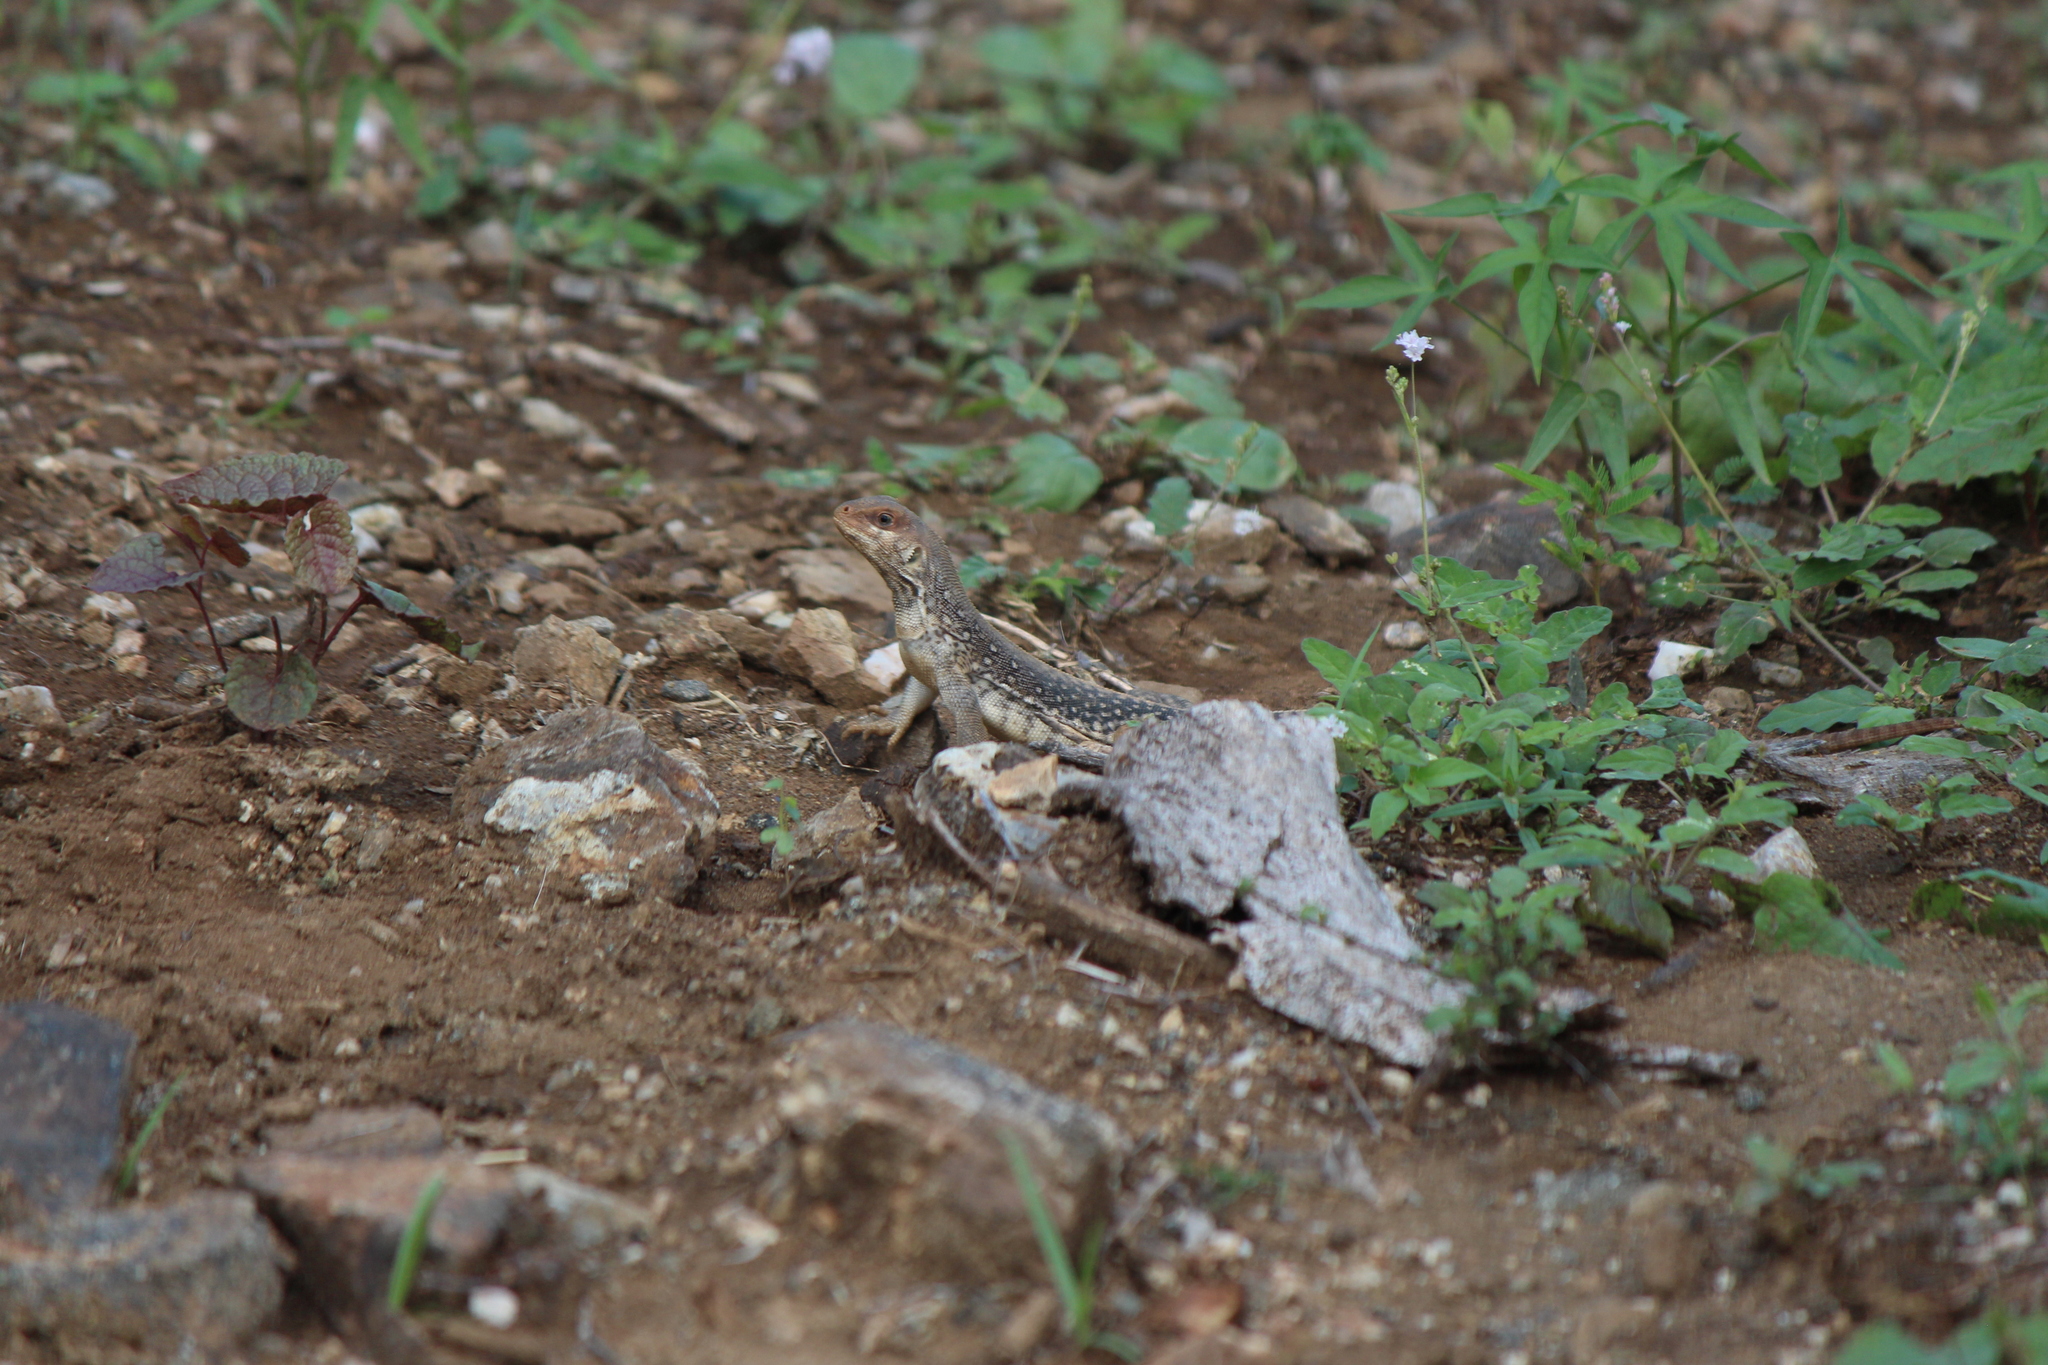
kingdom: Animalia
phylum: Chordata
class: Squamata
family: Iguanidae
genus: Dipsosaurus
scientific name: Dipsosaurus dorsalis
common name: Desert iguana
